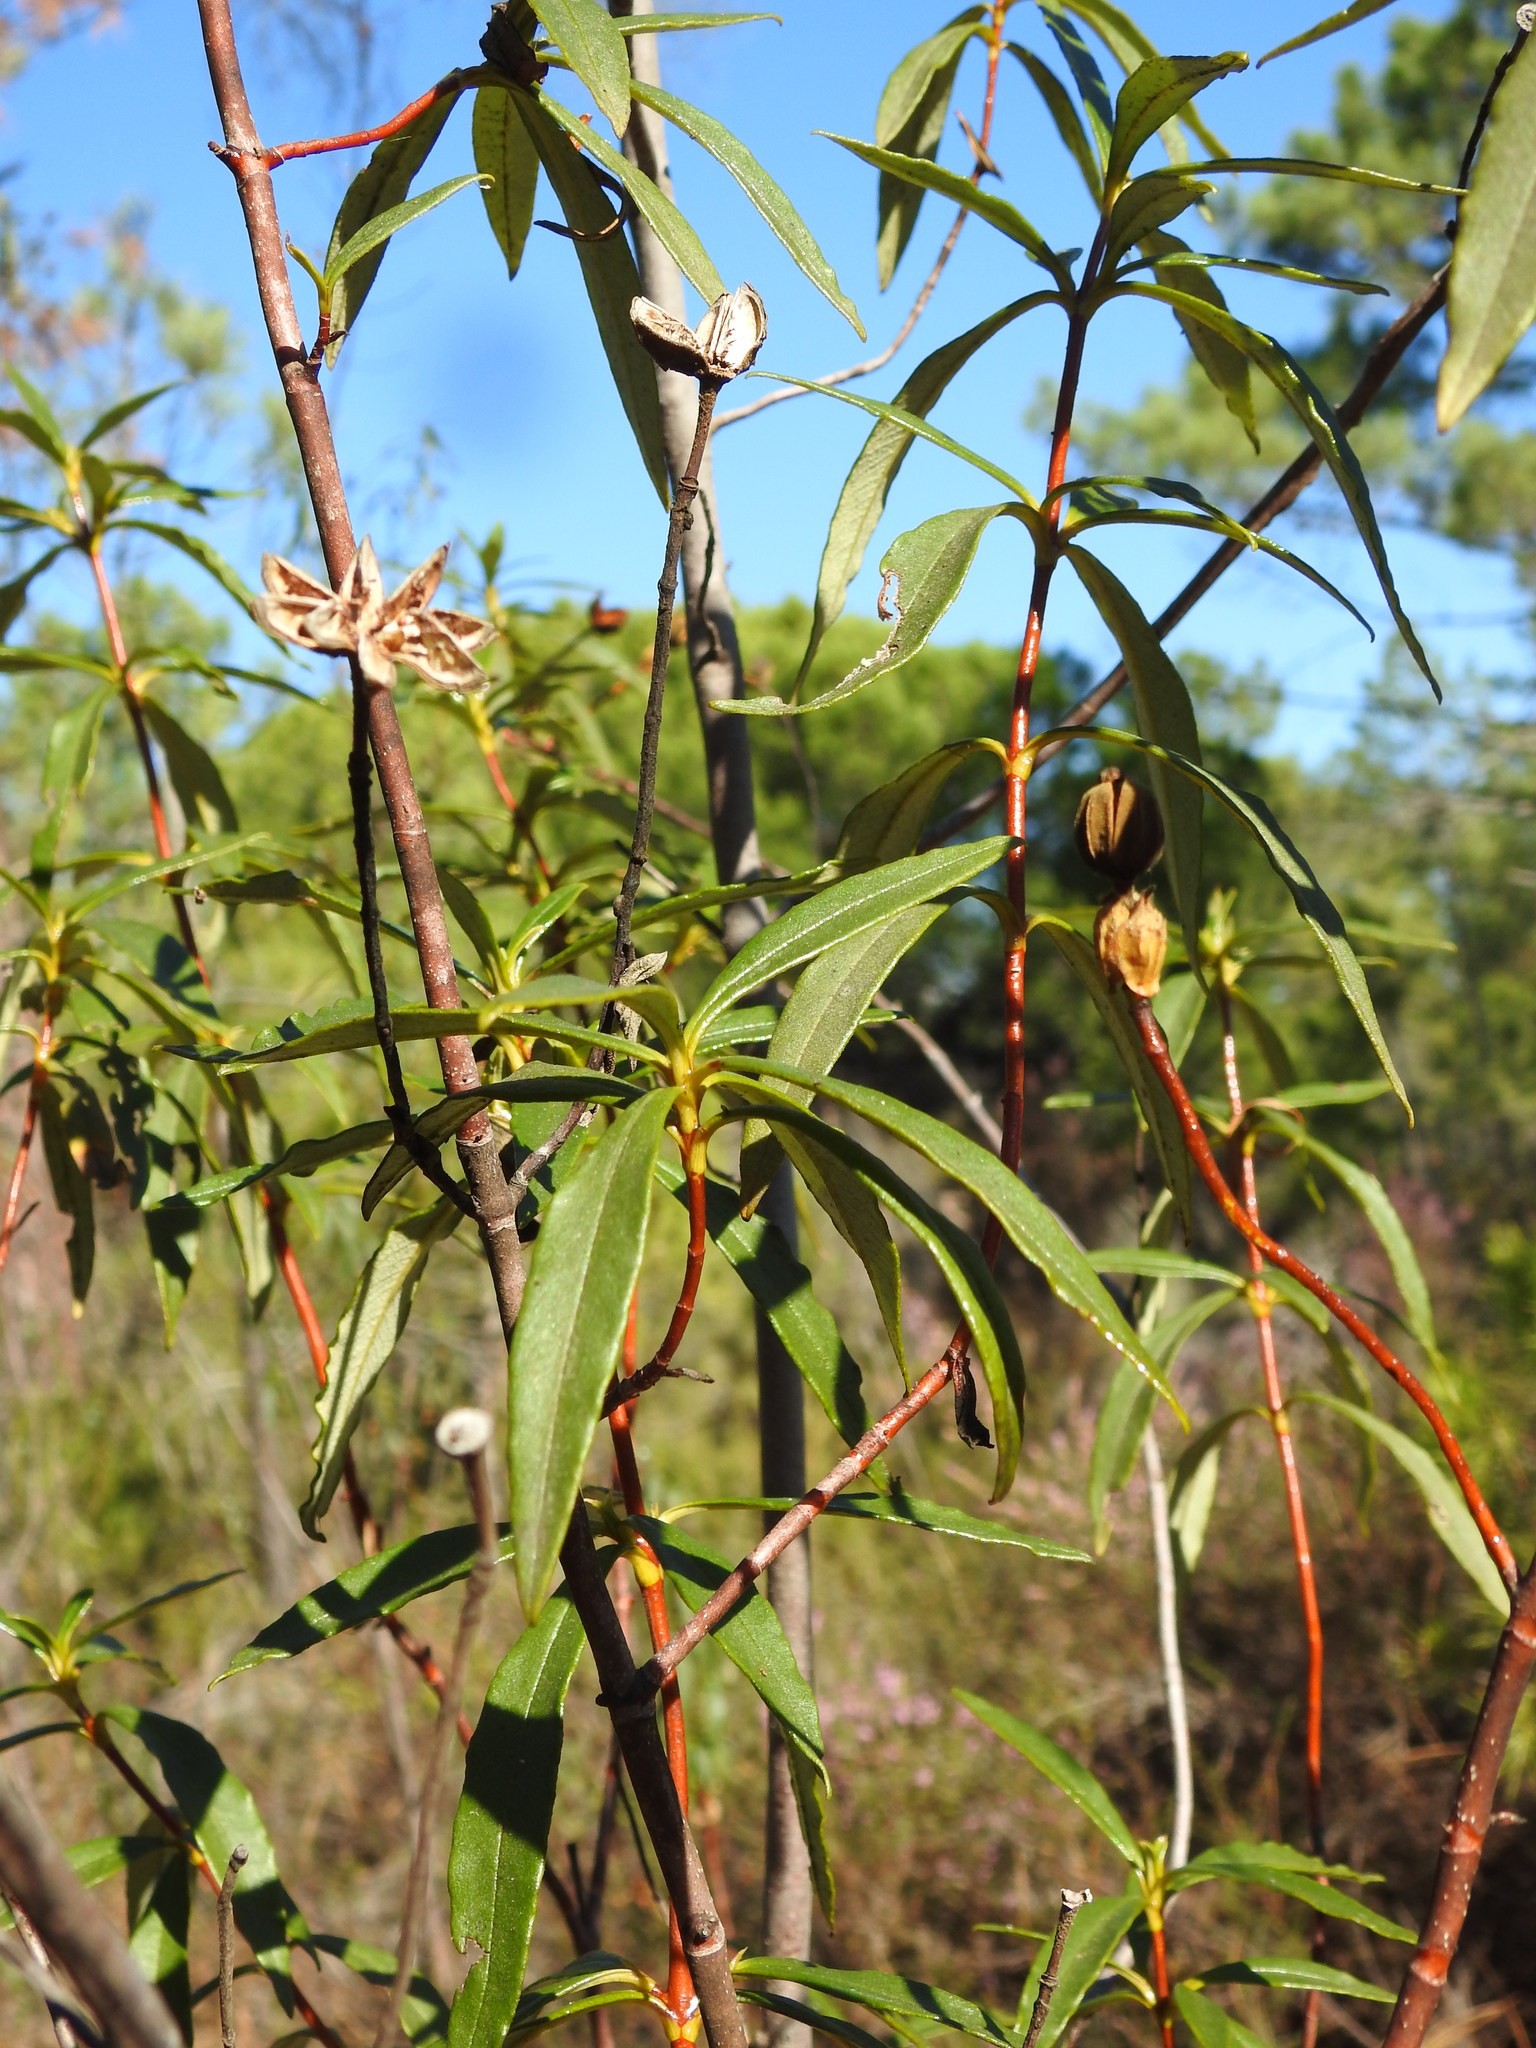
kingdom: Plantae
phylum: Tracheophyta
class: Magnoliopsida
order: Malvales
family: Cistaceae
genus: Cistus
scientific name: Cistus ladanifer
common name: Common gum cistus
